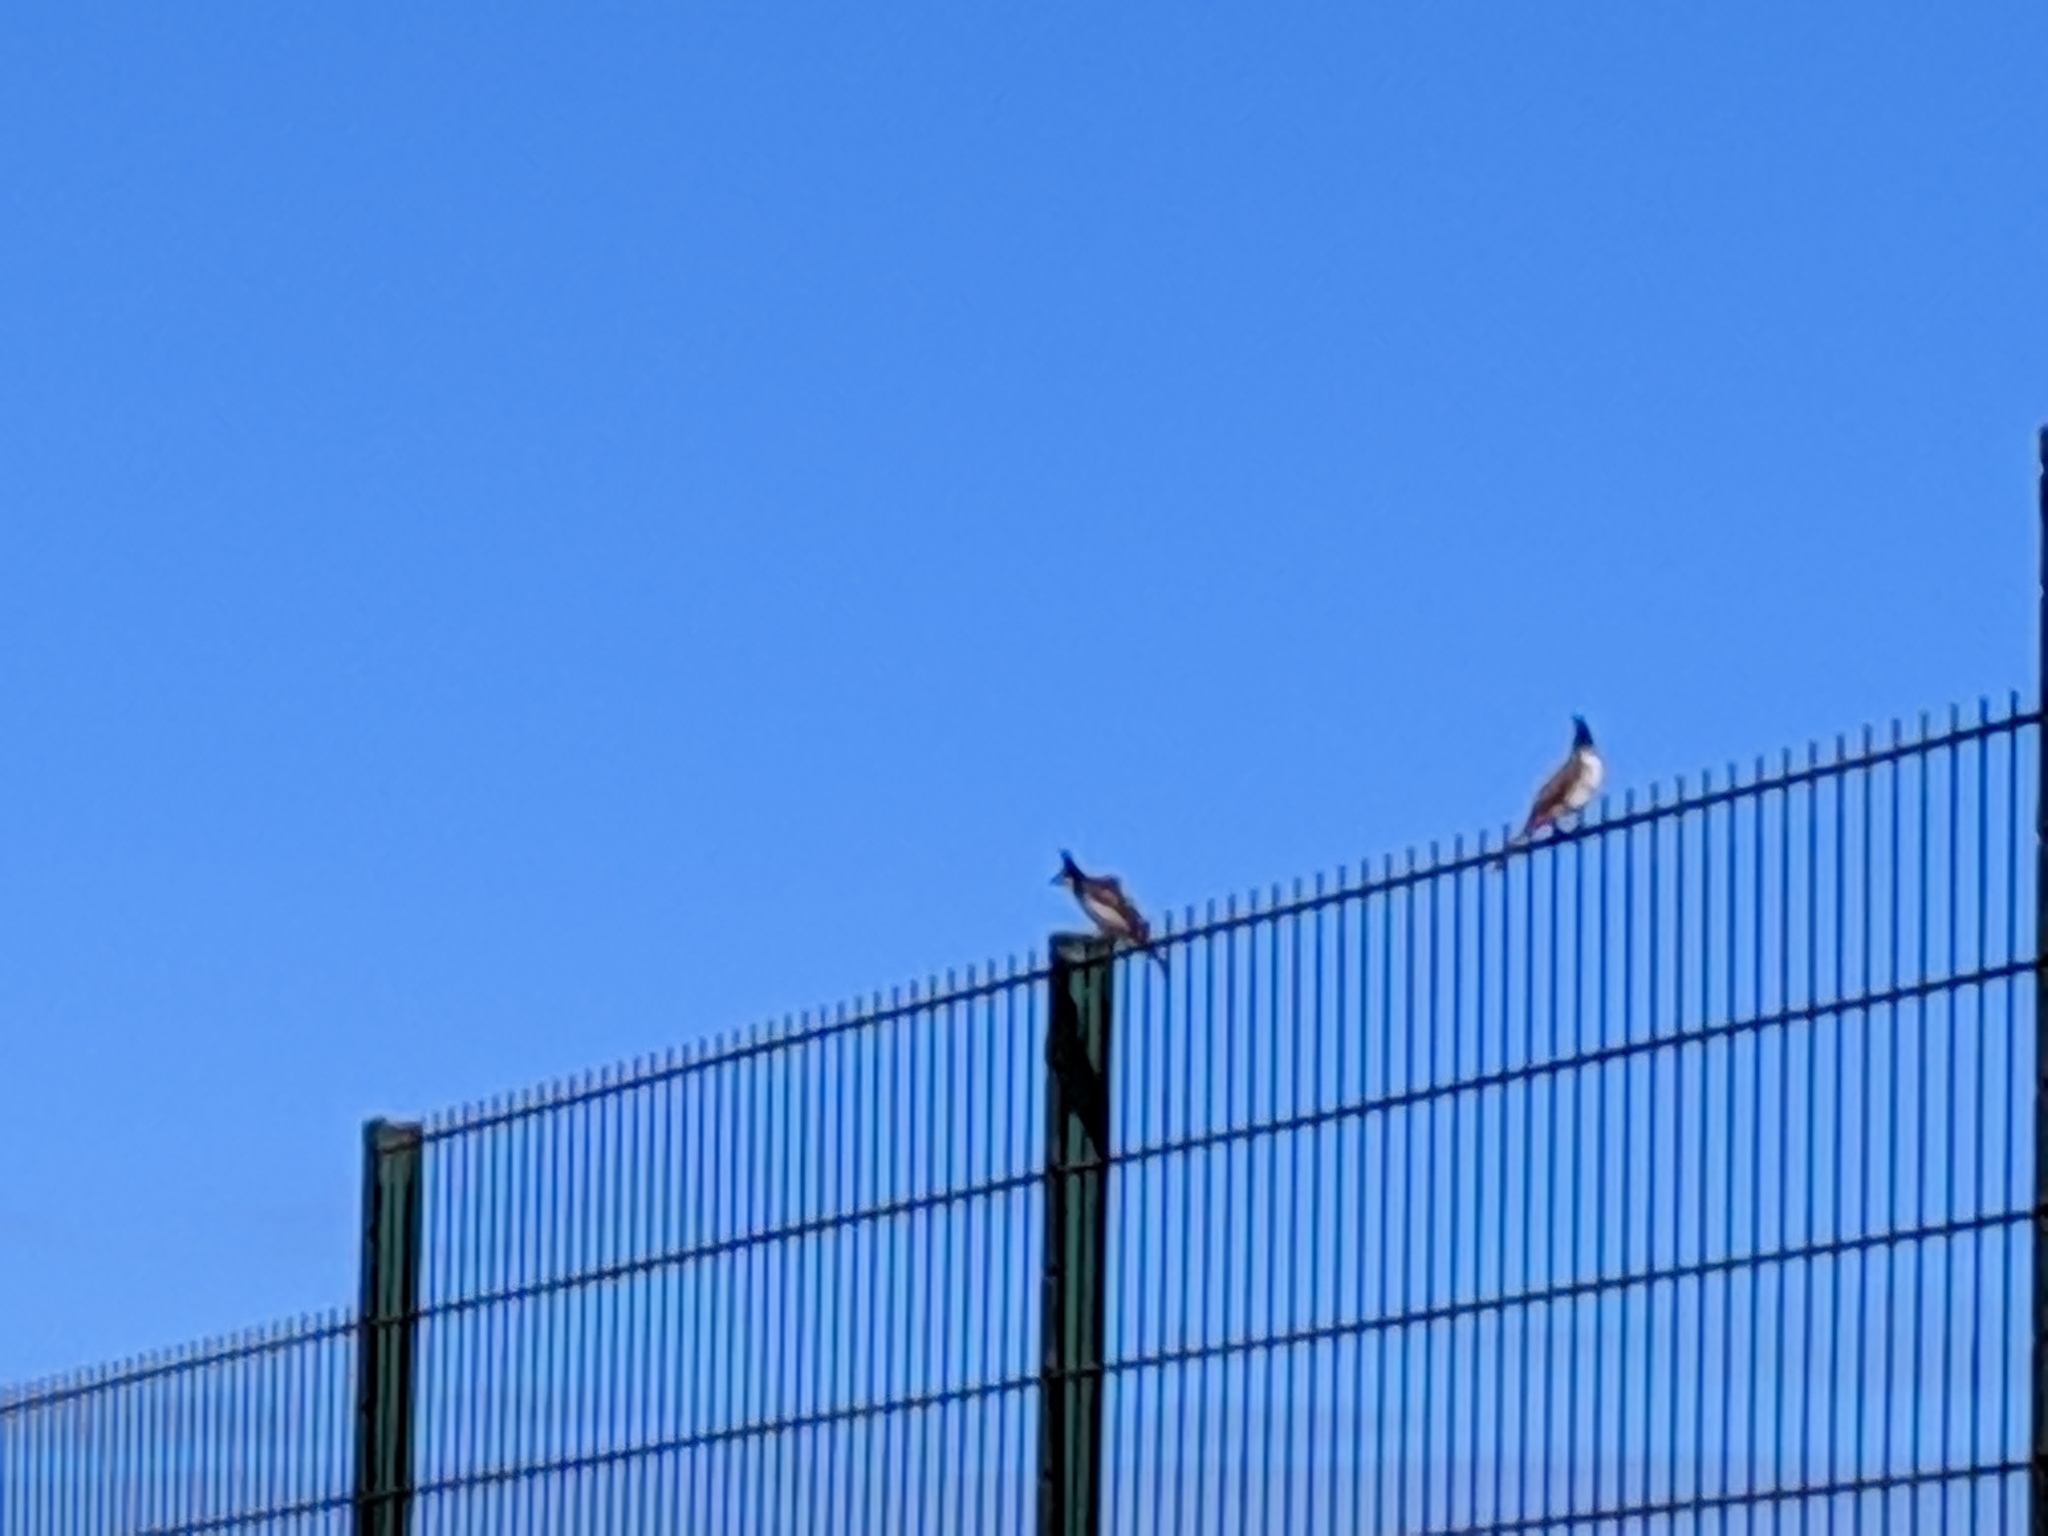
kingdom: Animalia
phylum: Chordata
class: Aves
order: Passeriformes
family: Pycnonotidae
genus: Pycnonotus
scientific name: Pycnonotus jocosus
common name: Red-whiskered bulbul
